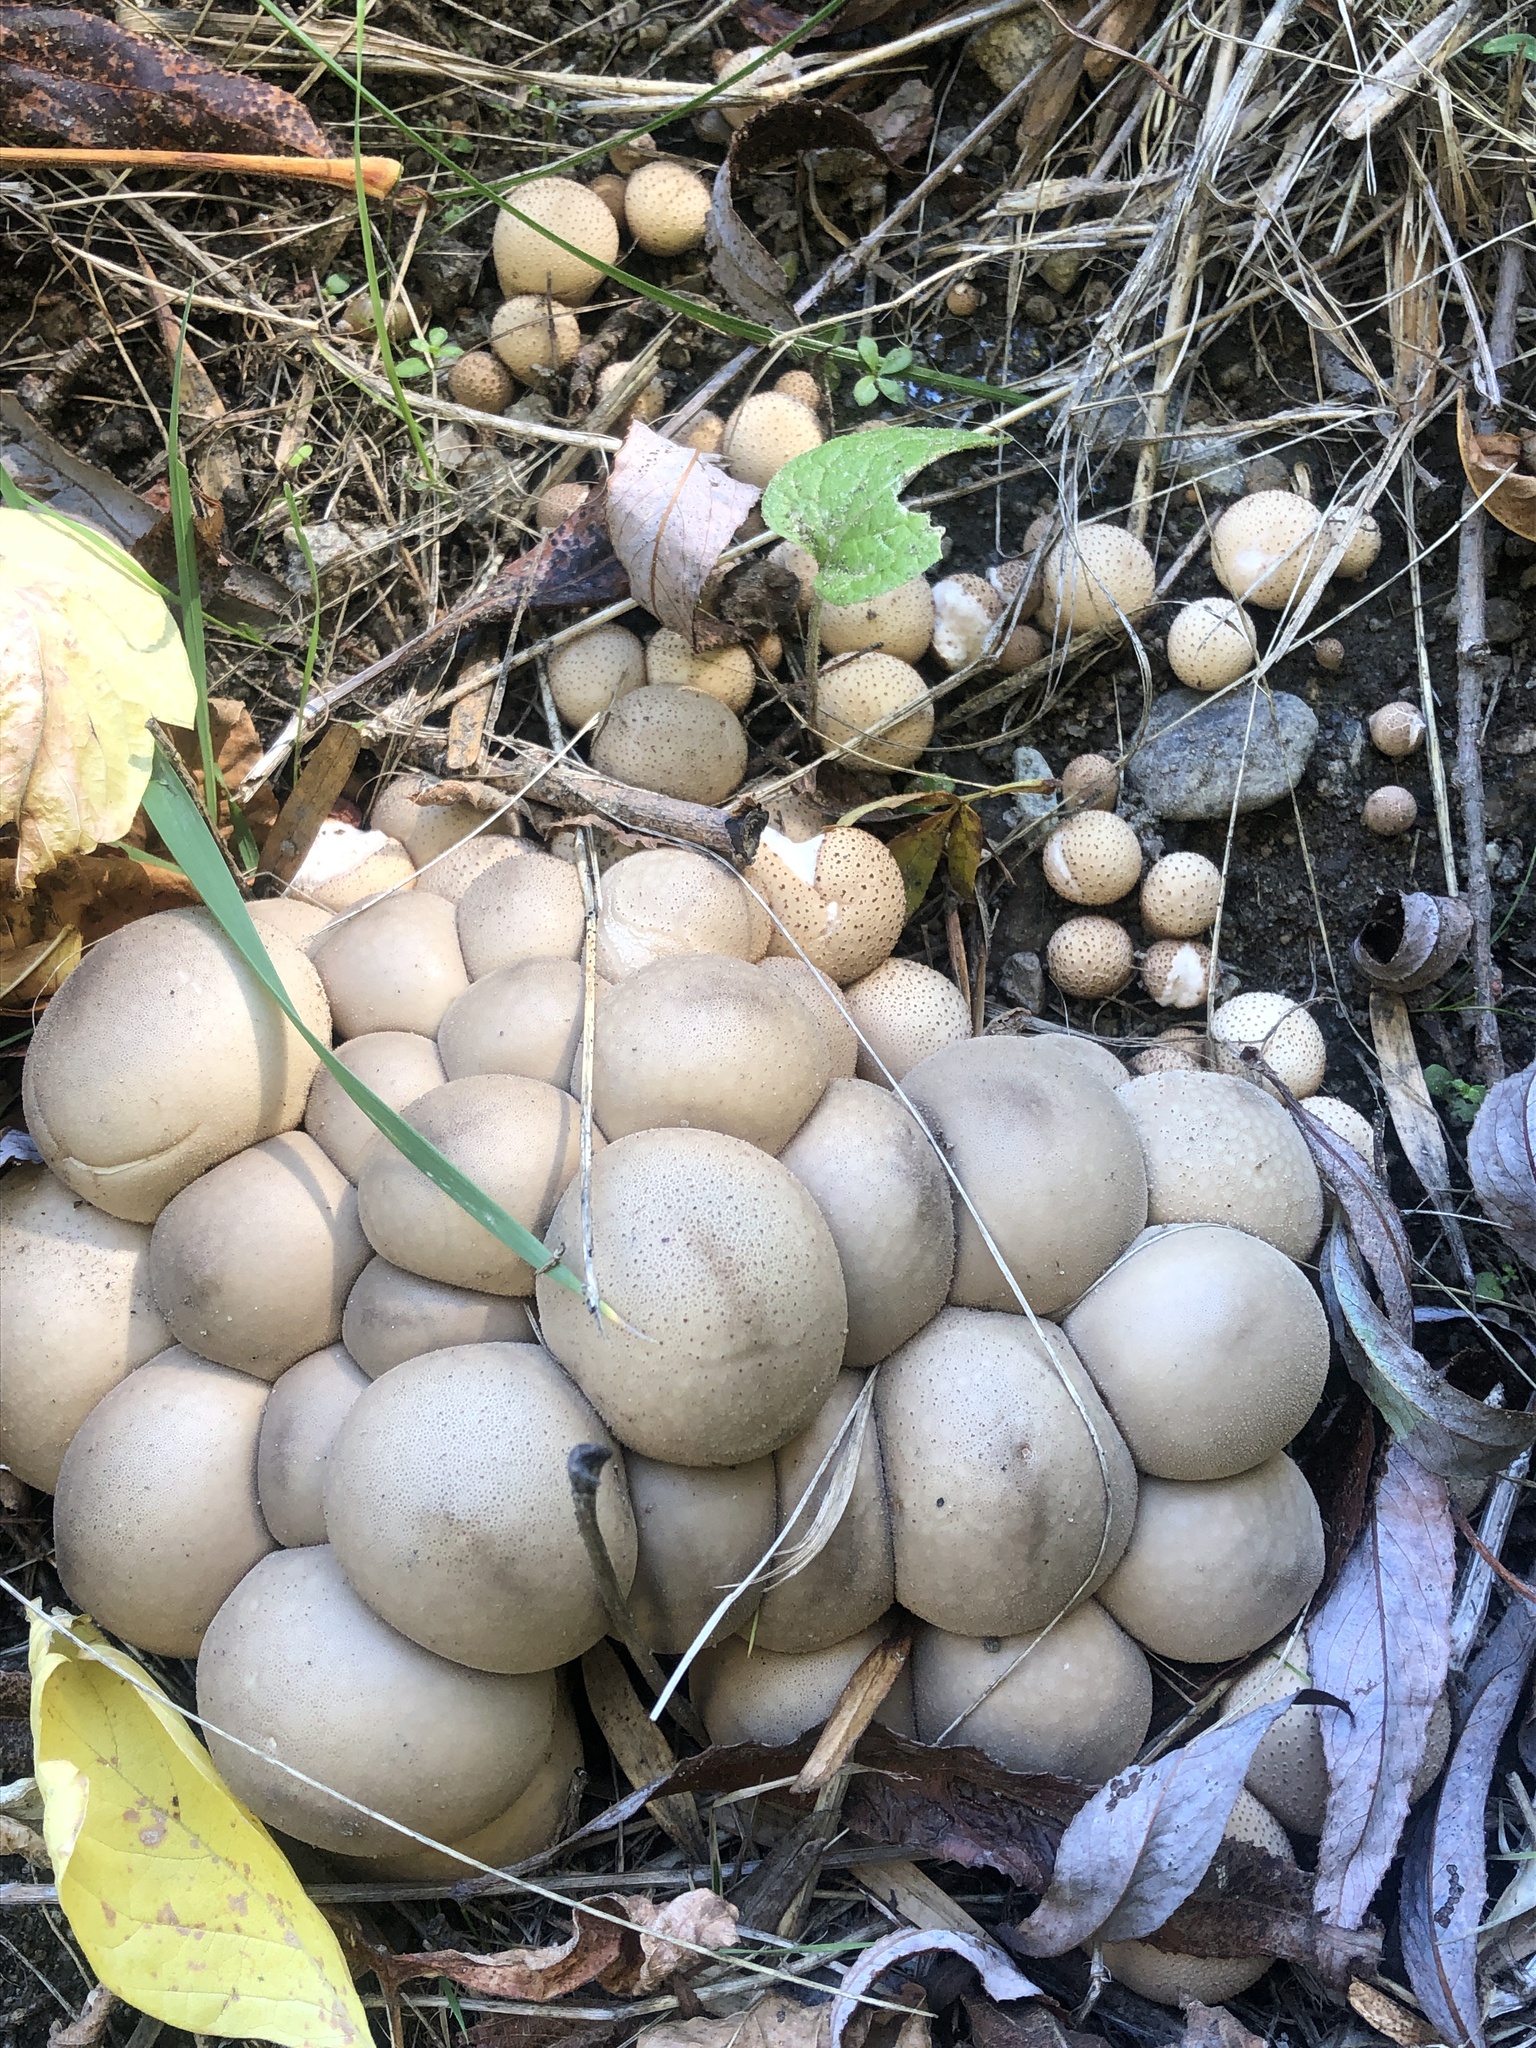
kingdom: Fungi
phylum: Basidiomycota
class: Agaricomycetes
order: Agaricales
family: Lycoperdaceae
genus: Apioperdon
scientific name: Apioperdon pyriforme
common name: Pear-shaped puffball
